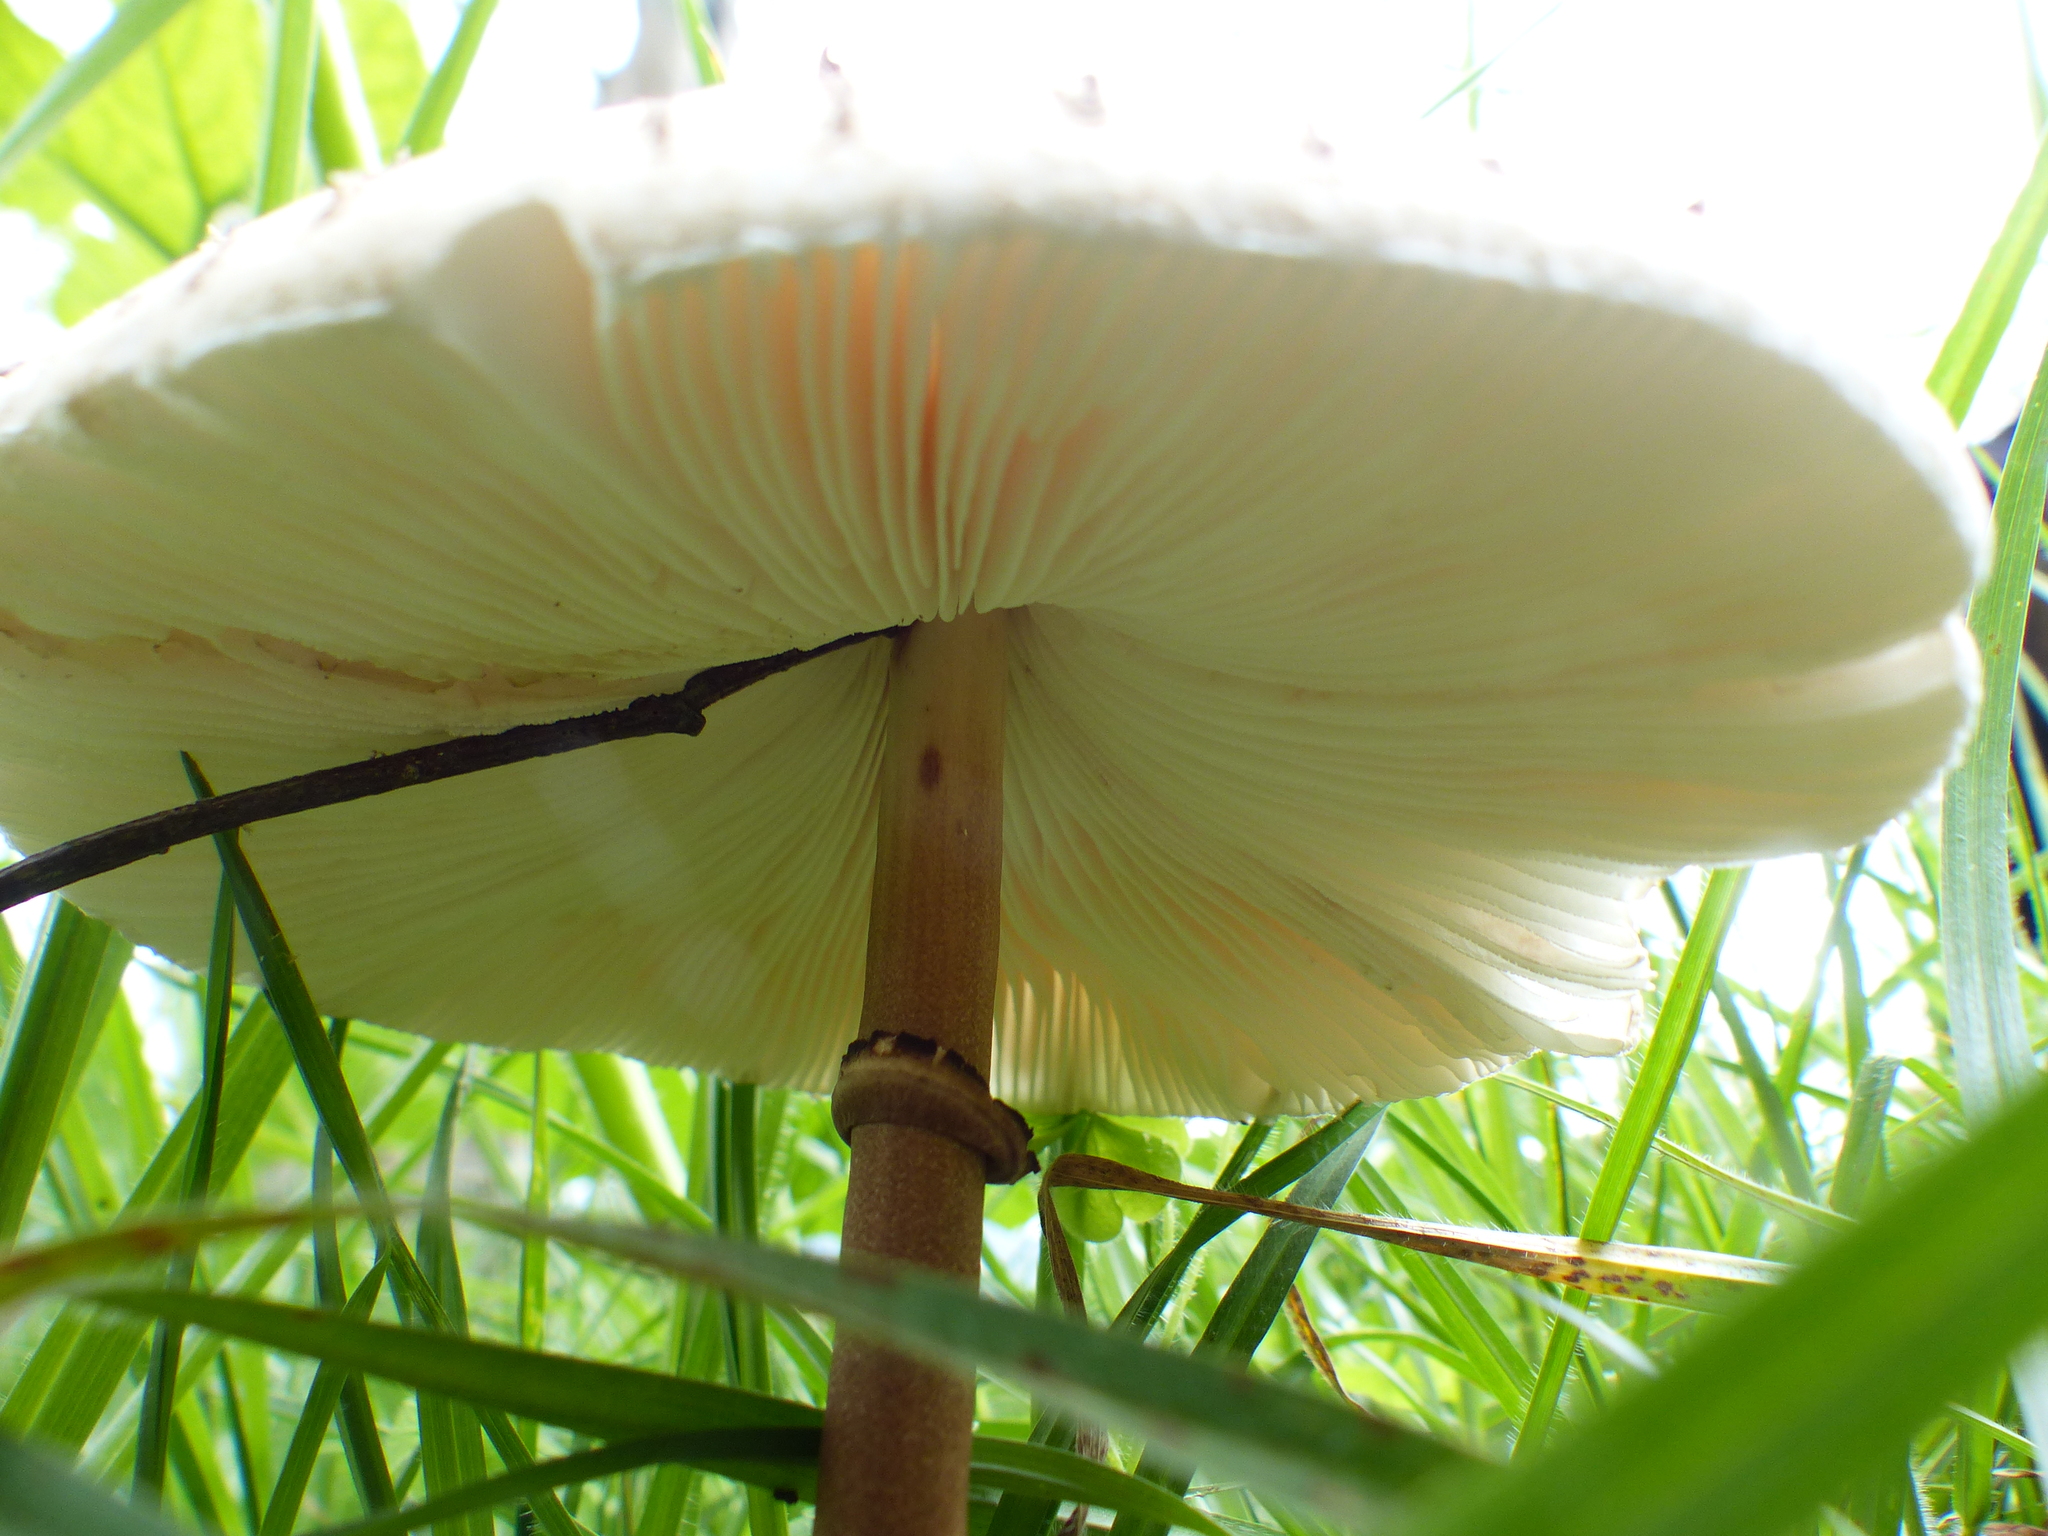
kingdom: Fungi
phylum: Basidiomycota
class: Agaricomycetes
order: Agaricales
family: Agaricaceae
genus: Macrolepiota
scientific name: Macrolepiota colombiana
